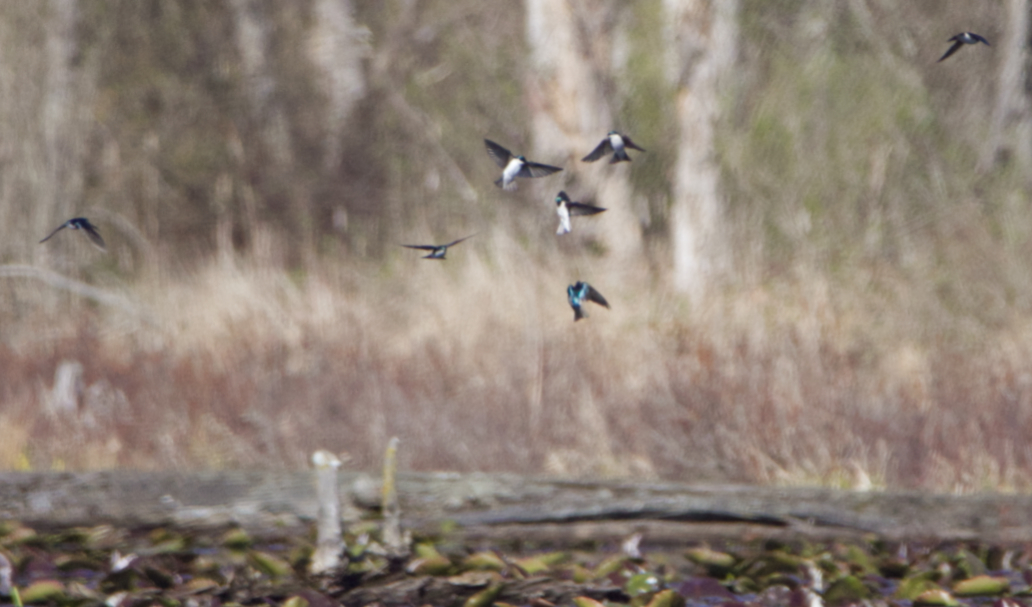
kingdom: Animalia
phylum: Chordata
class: Aves
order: Passeriformes
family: Hirundinidae
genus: Tachycineta
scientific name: Tachycineta bicolor
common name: Tree swallow
